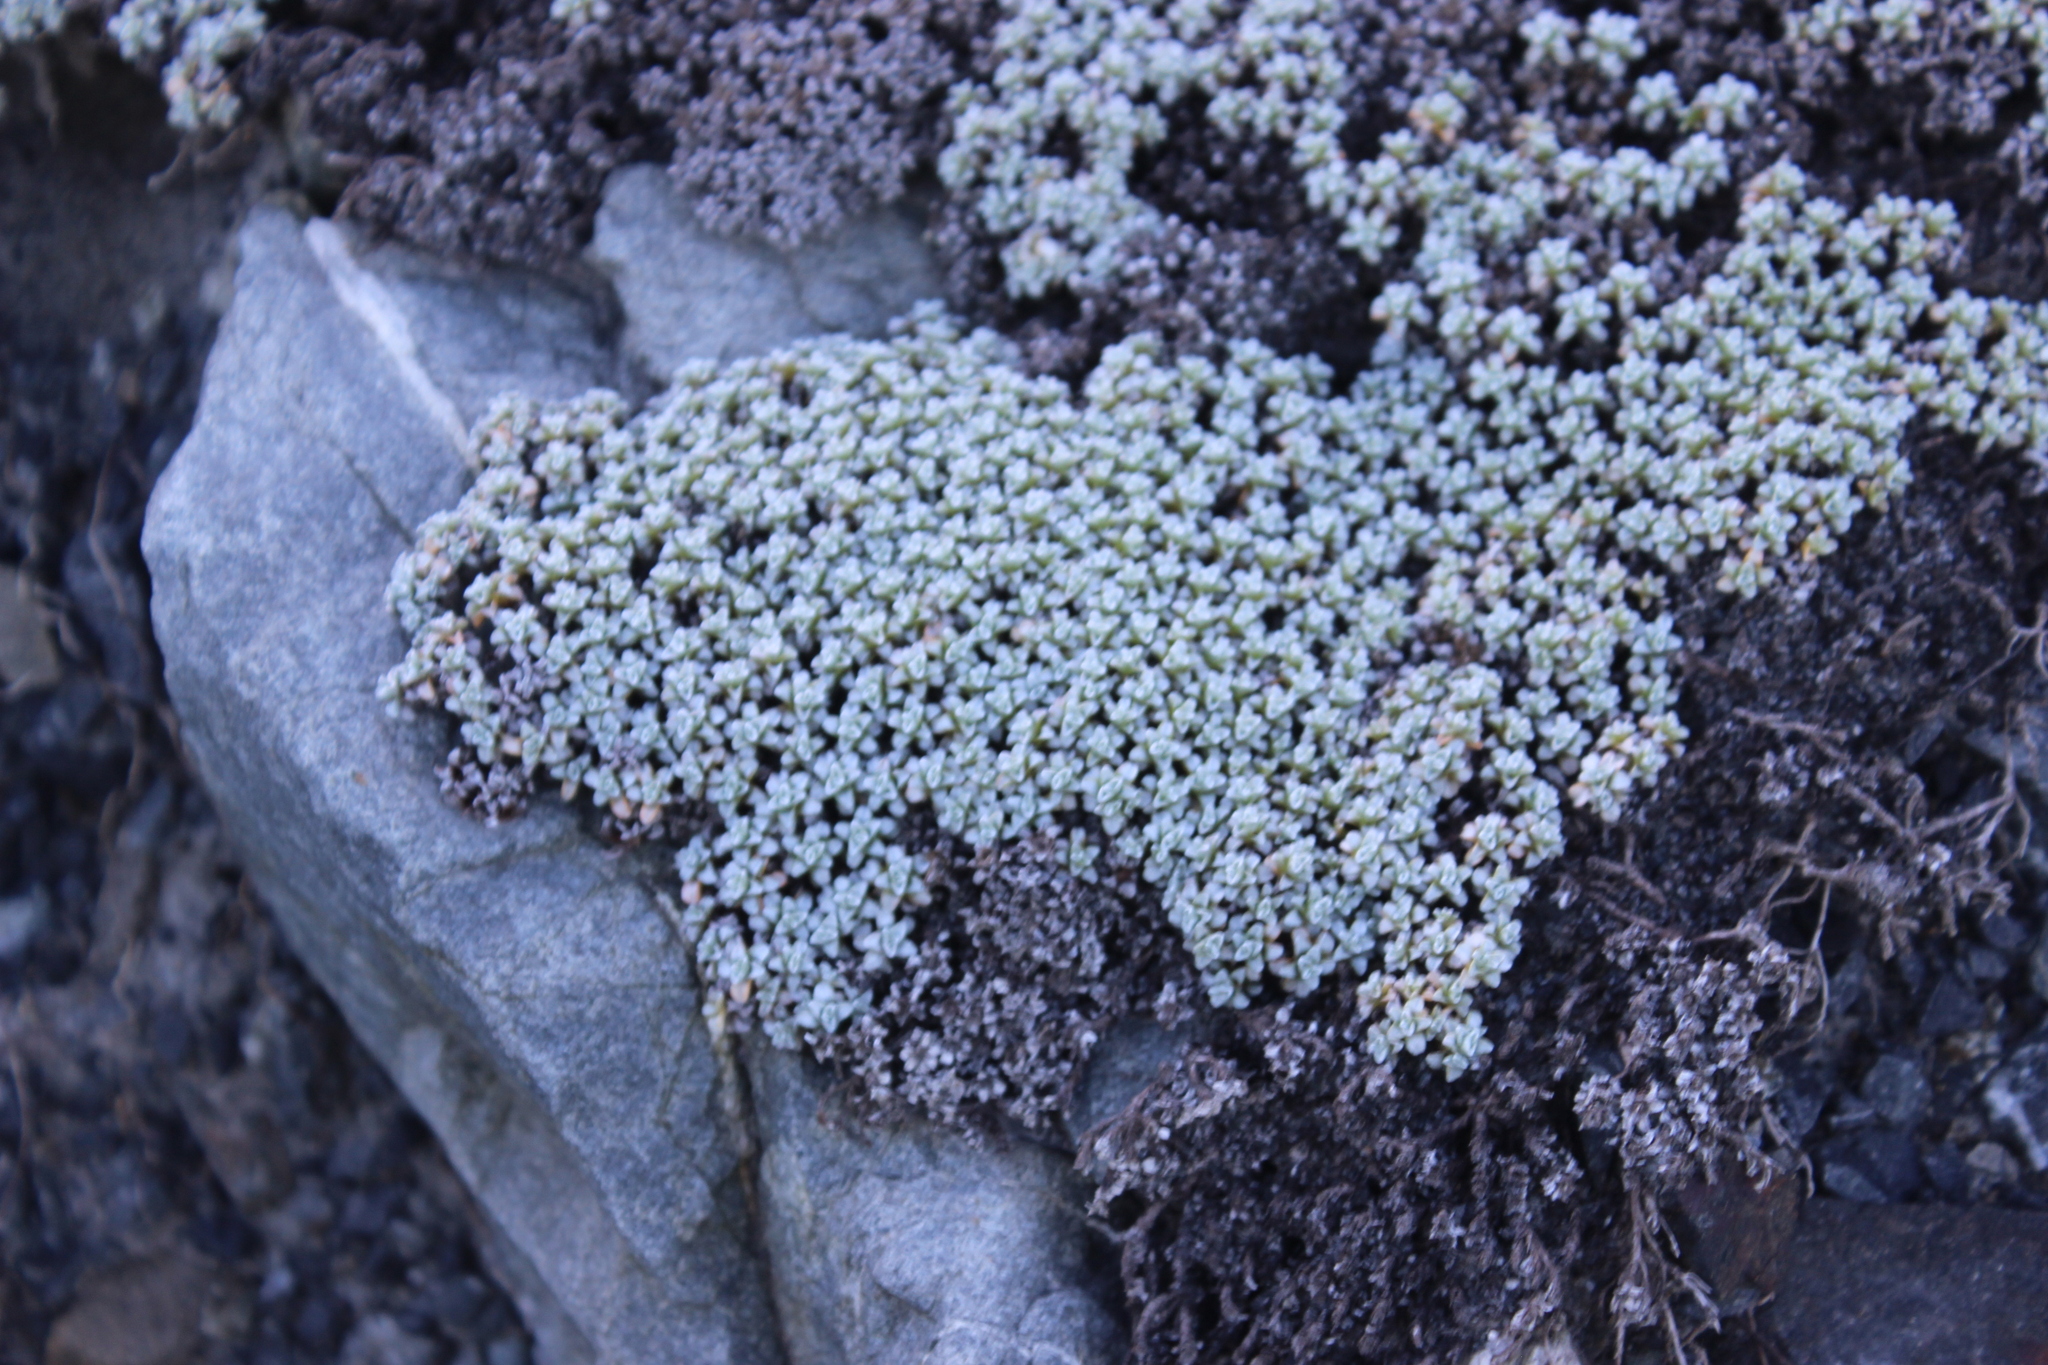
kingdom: Plantae
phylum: Tracheophyta
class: Magnoliopsida
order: Asterales
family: Asteraceae
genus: Raoulia
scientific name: Raoulia hookeri
